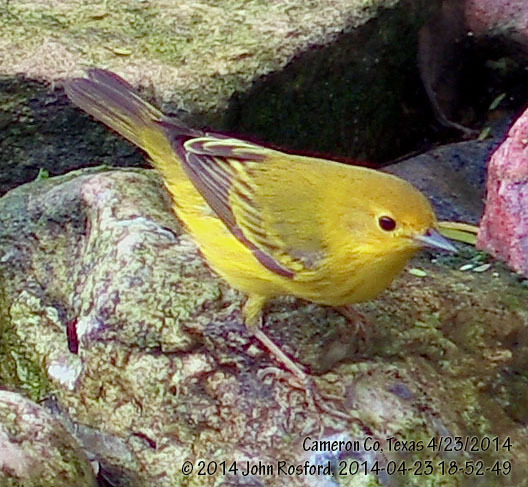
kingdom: Animalia
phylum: Chordata
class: Aves
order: Passeriformes
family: Parulidae
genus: Setophaga
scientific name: Setophaga petechia
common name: Yellow warbler
